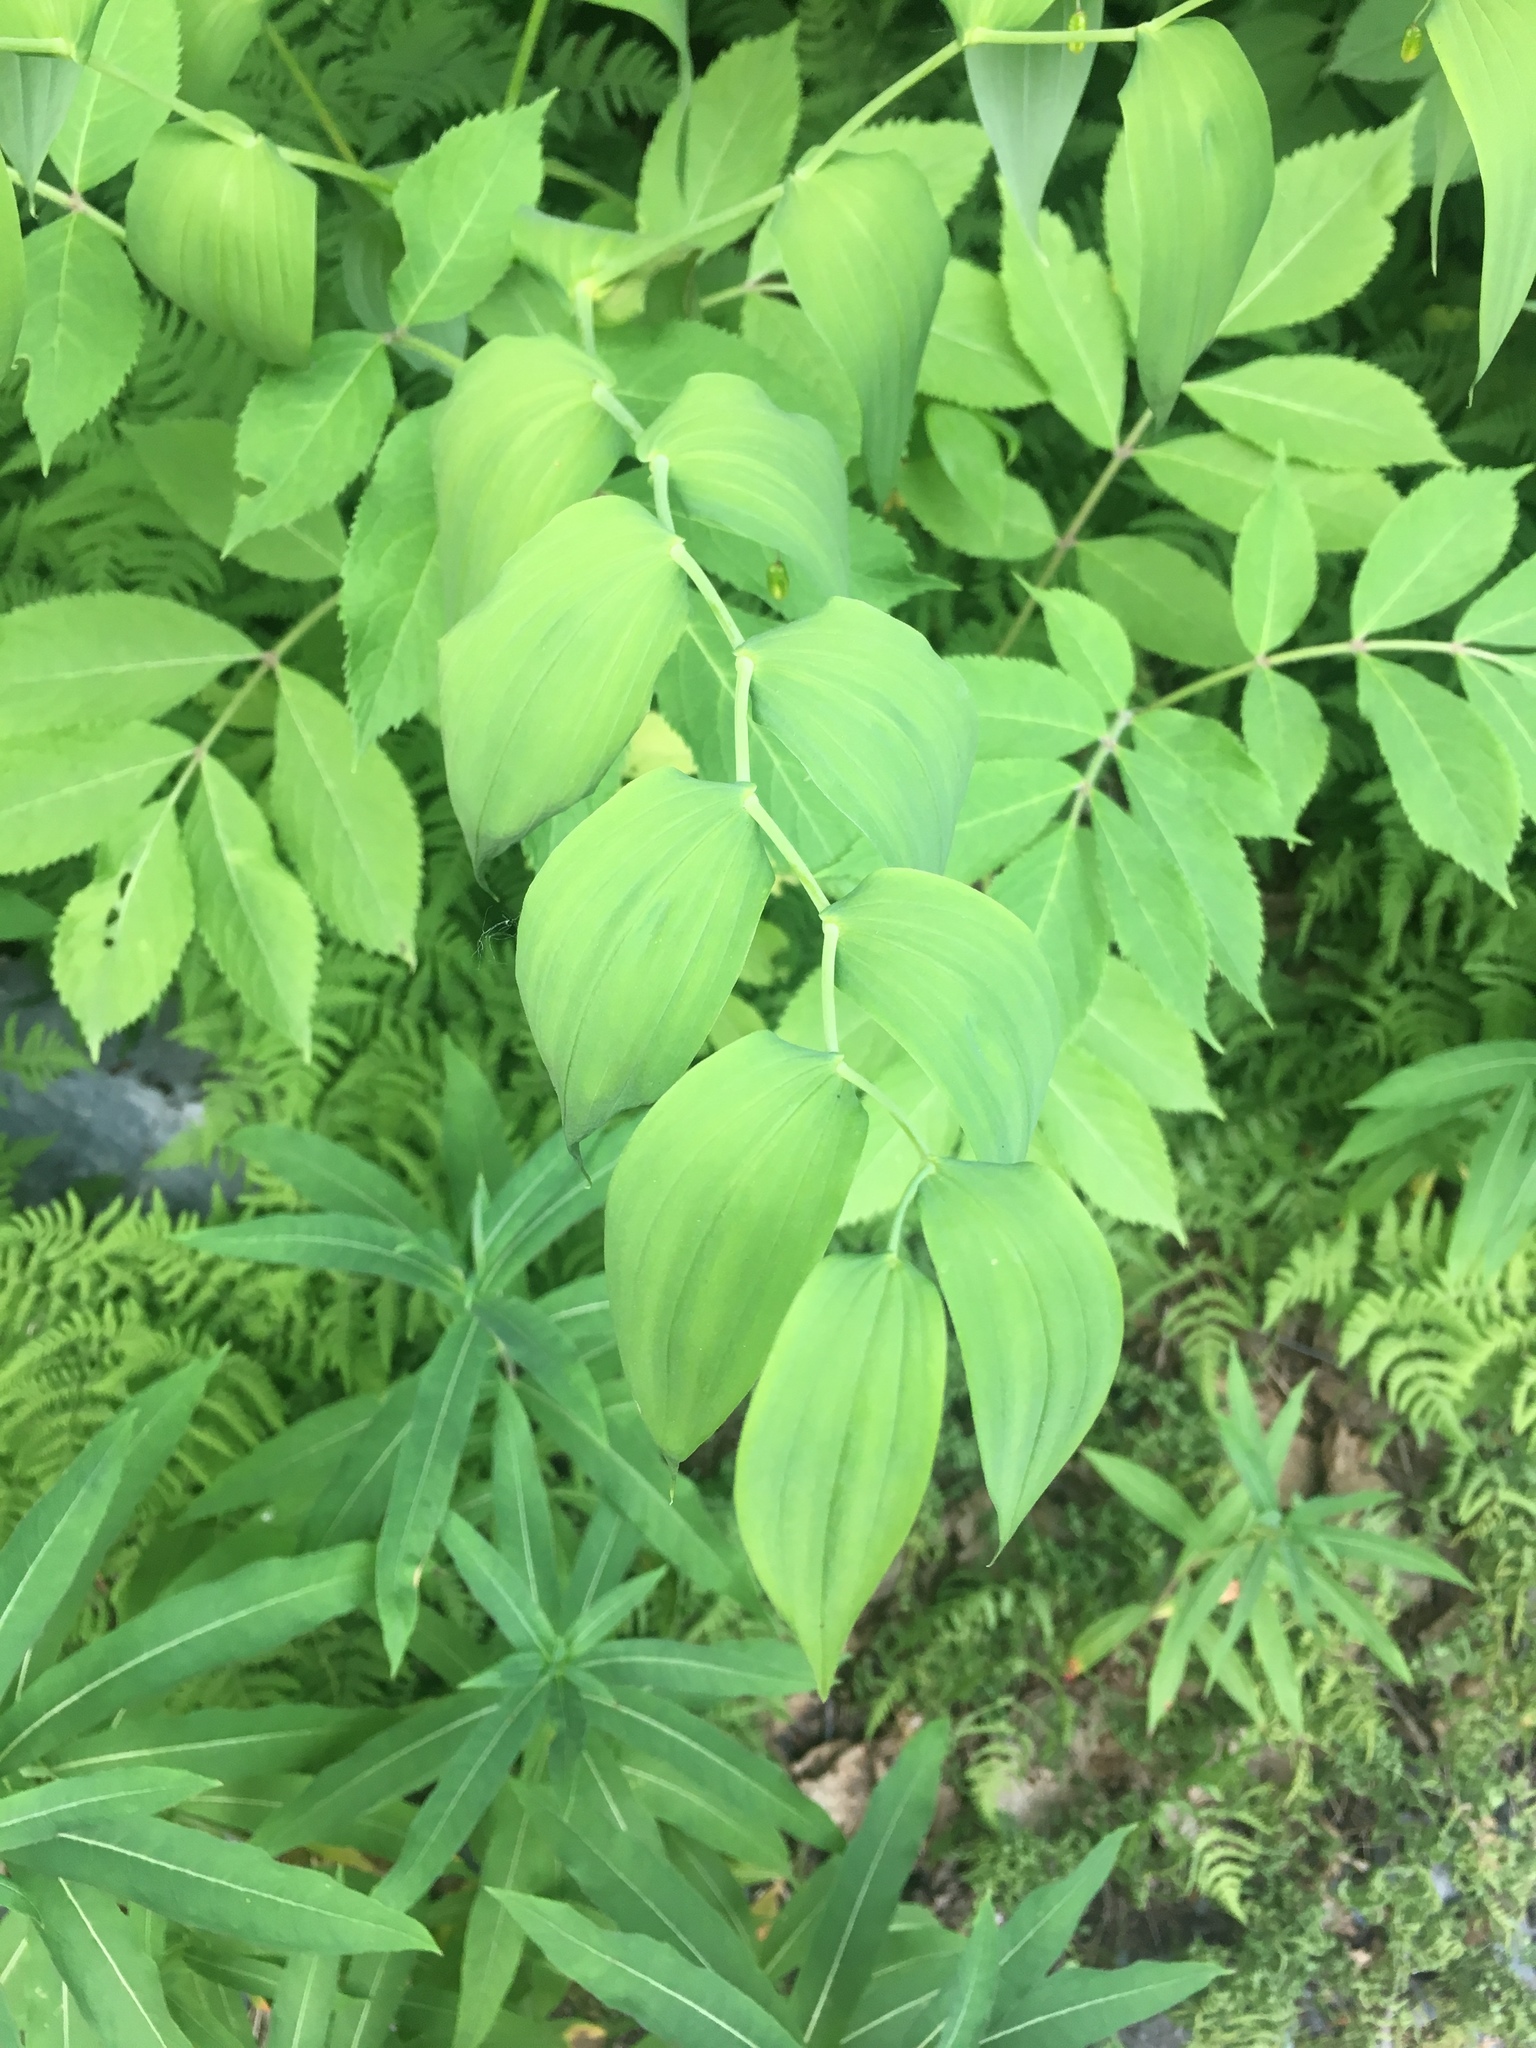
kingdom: Plantae
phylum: Tracheophyta
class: Liliopsida
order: Liliales
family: Liliaceae
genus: Streptopus
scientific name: Streptopus amplexifolius
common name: Clasp twisted stalk
